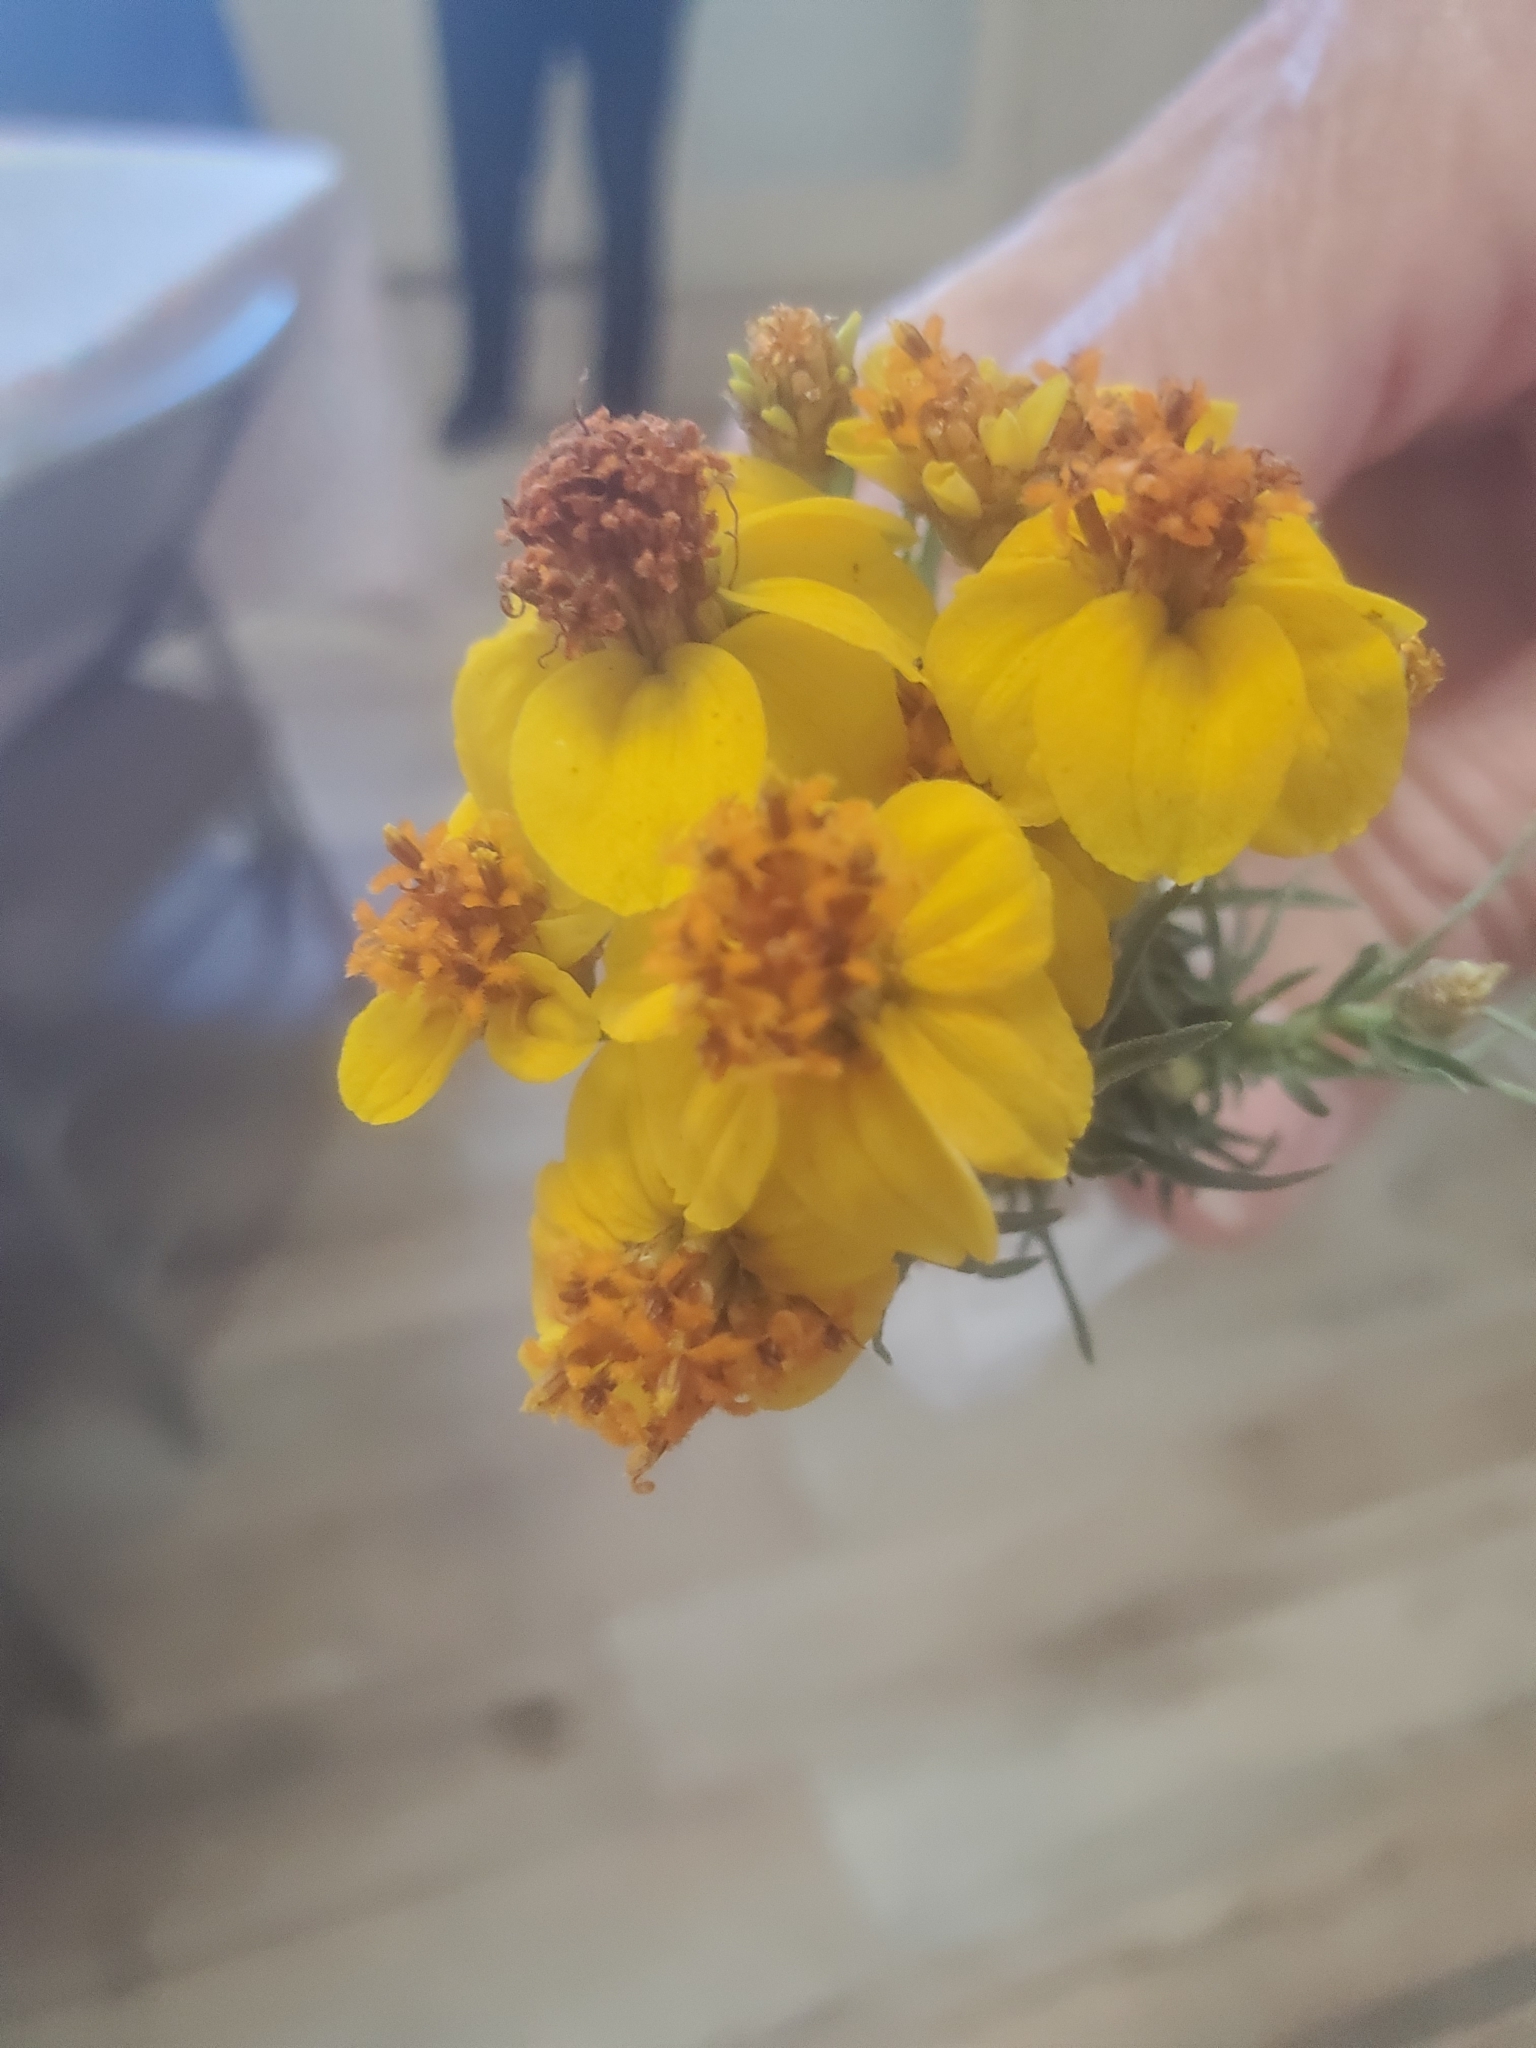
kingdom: Plantae
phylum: Tracheophyta
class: Magnoliopsida
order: Asterales
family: Asteraceae
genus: Zinnia
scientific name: Zinnia grandiflora
